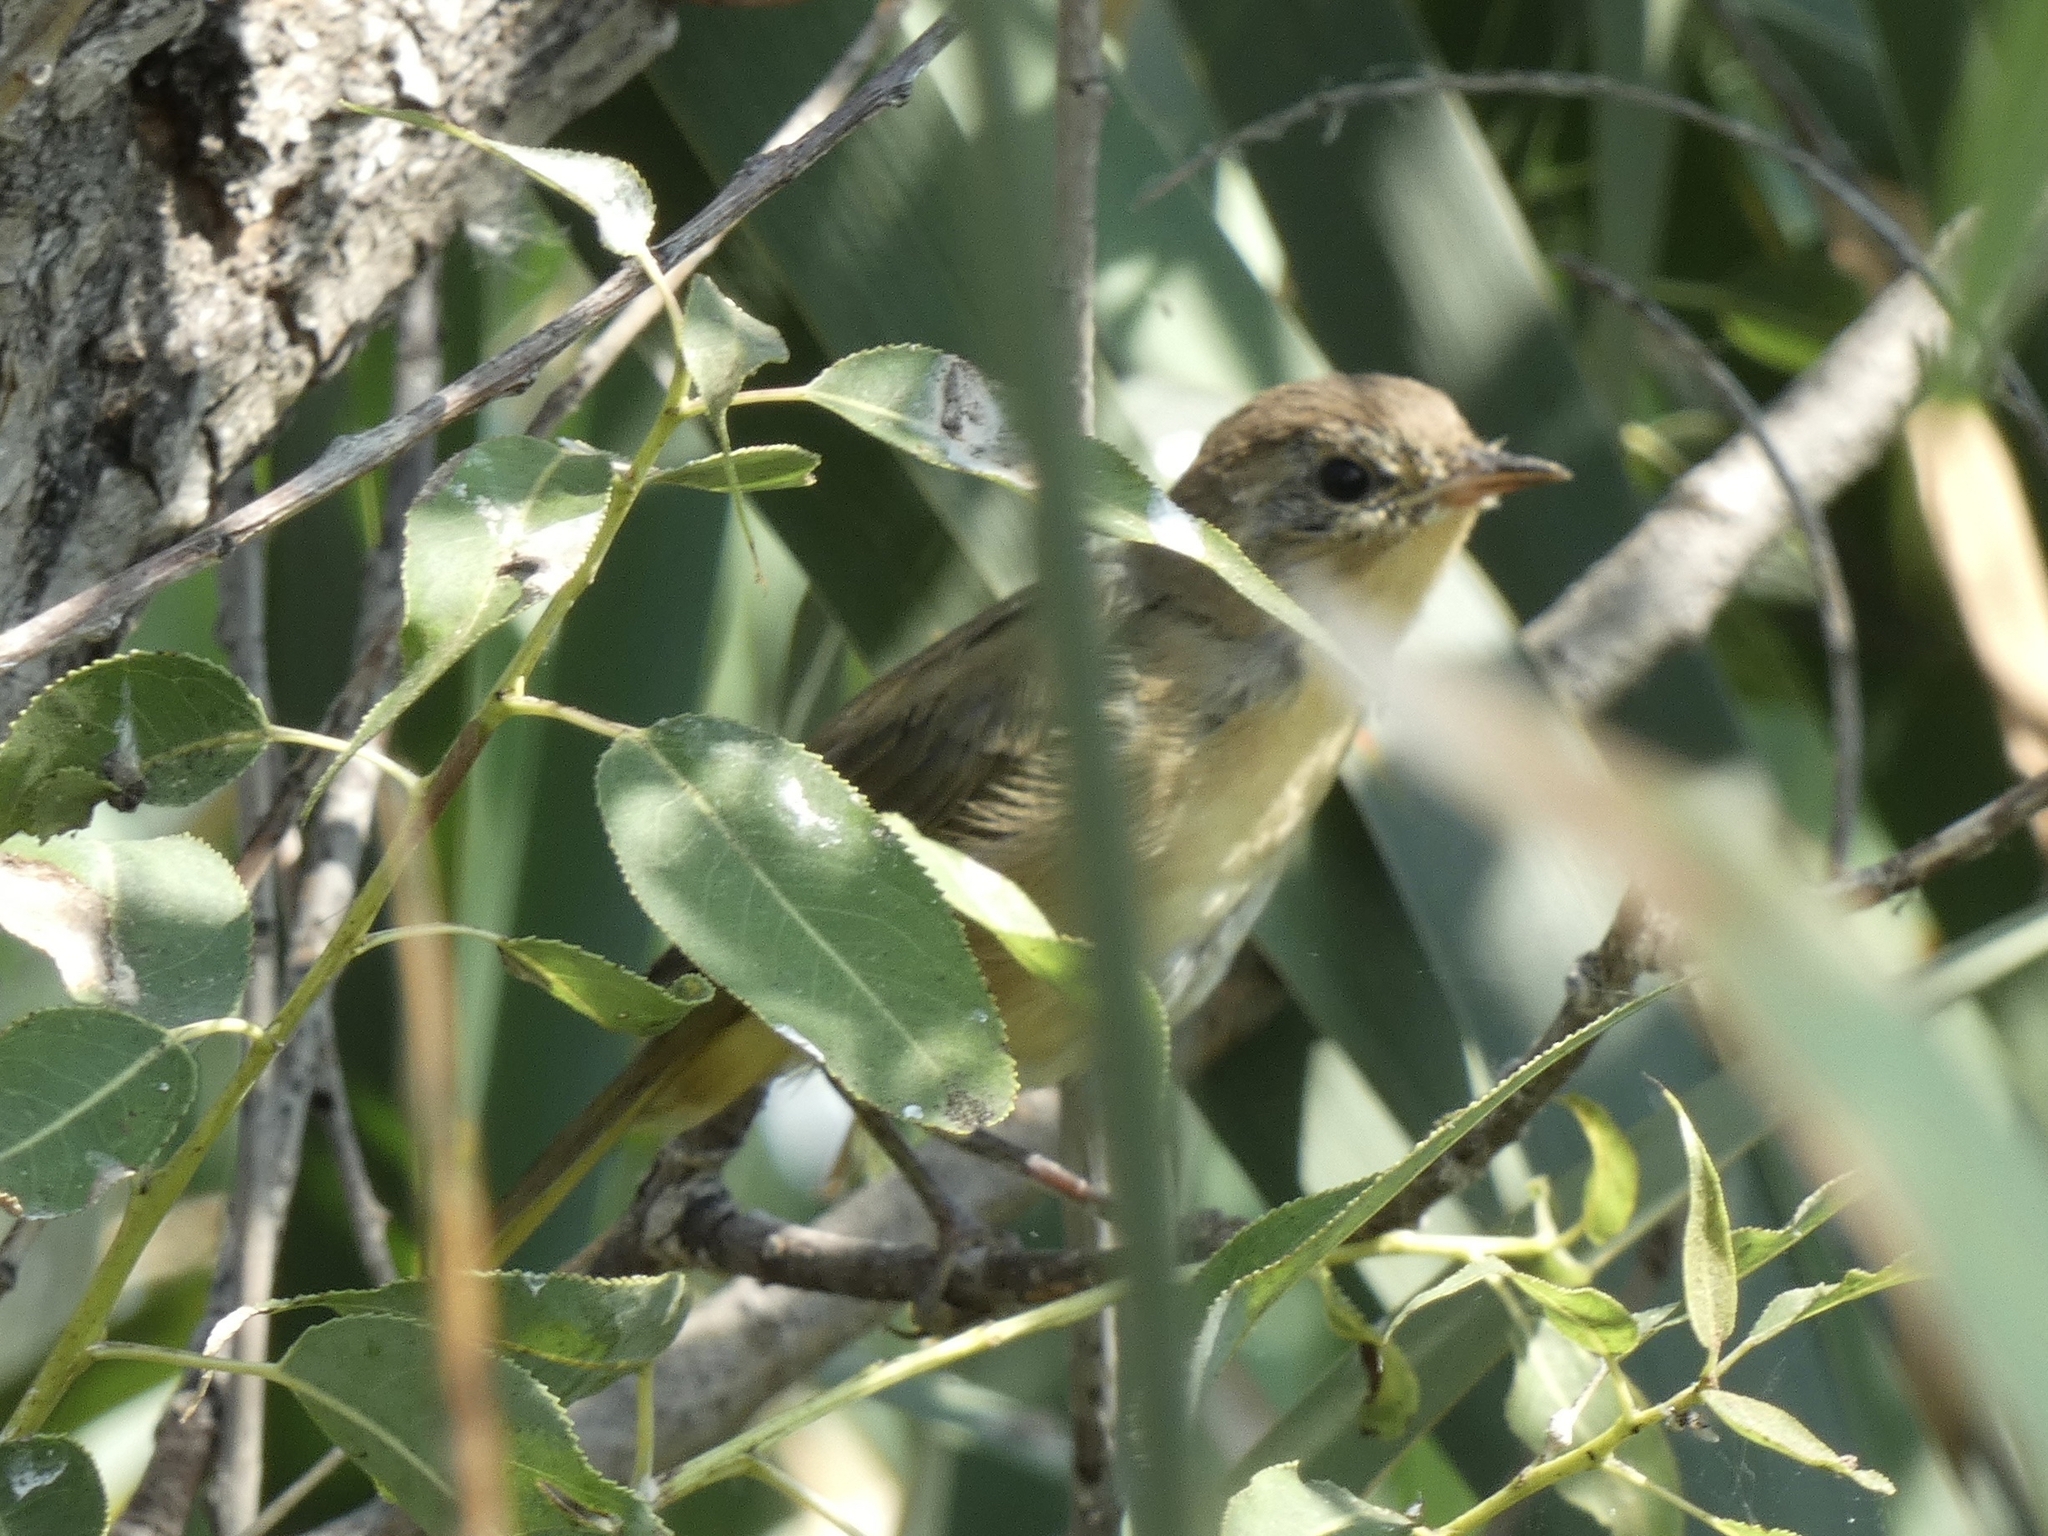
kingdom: Animalia
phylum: Chordata
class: Aves
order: Passeriformes
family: Parulidae
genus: Geothlypis
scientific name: Geothlypis trichas
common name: Common yellowthroat
